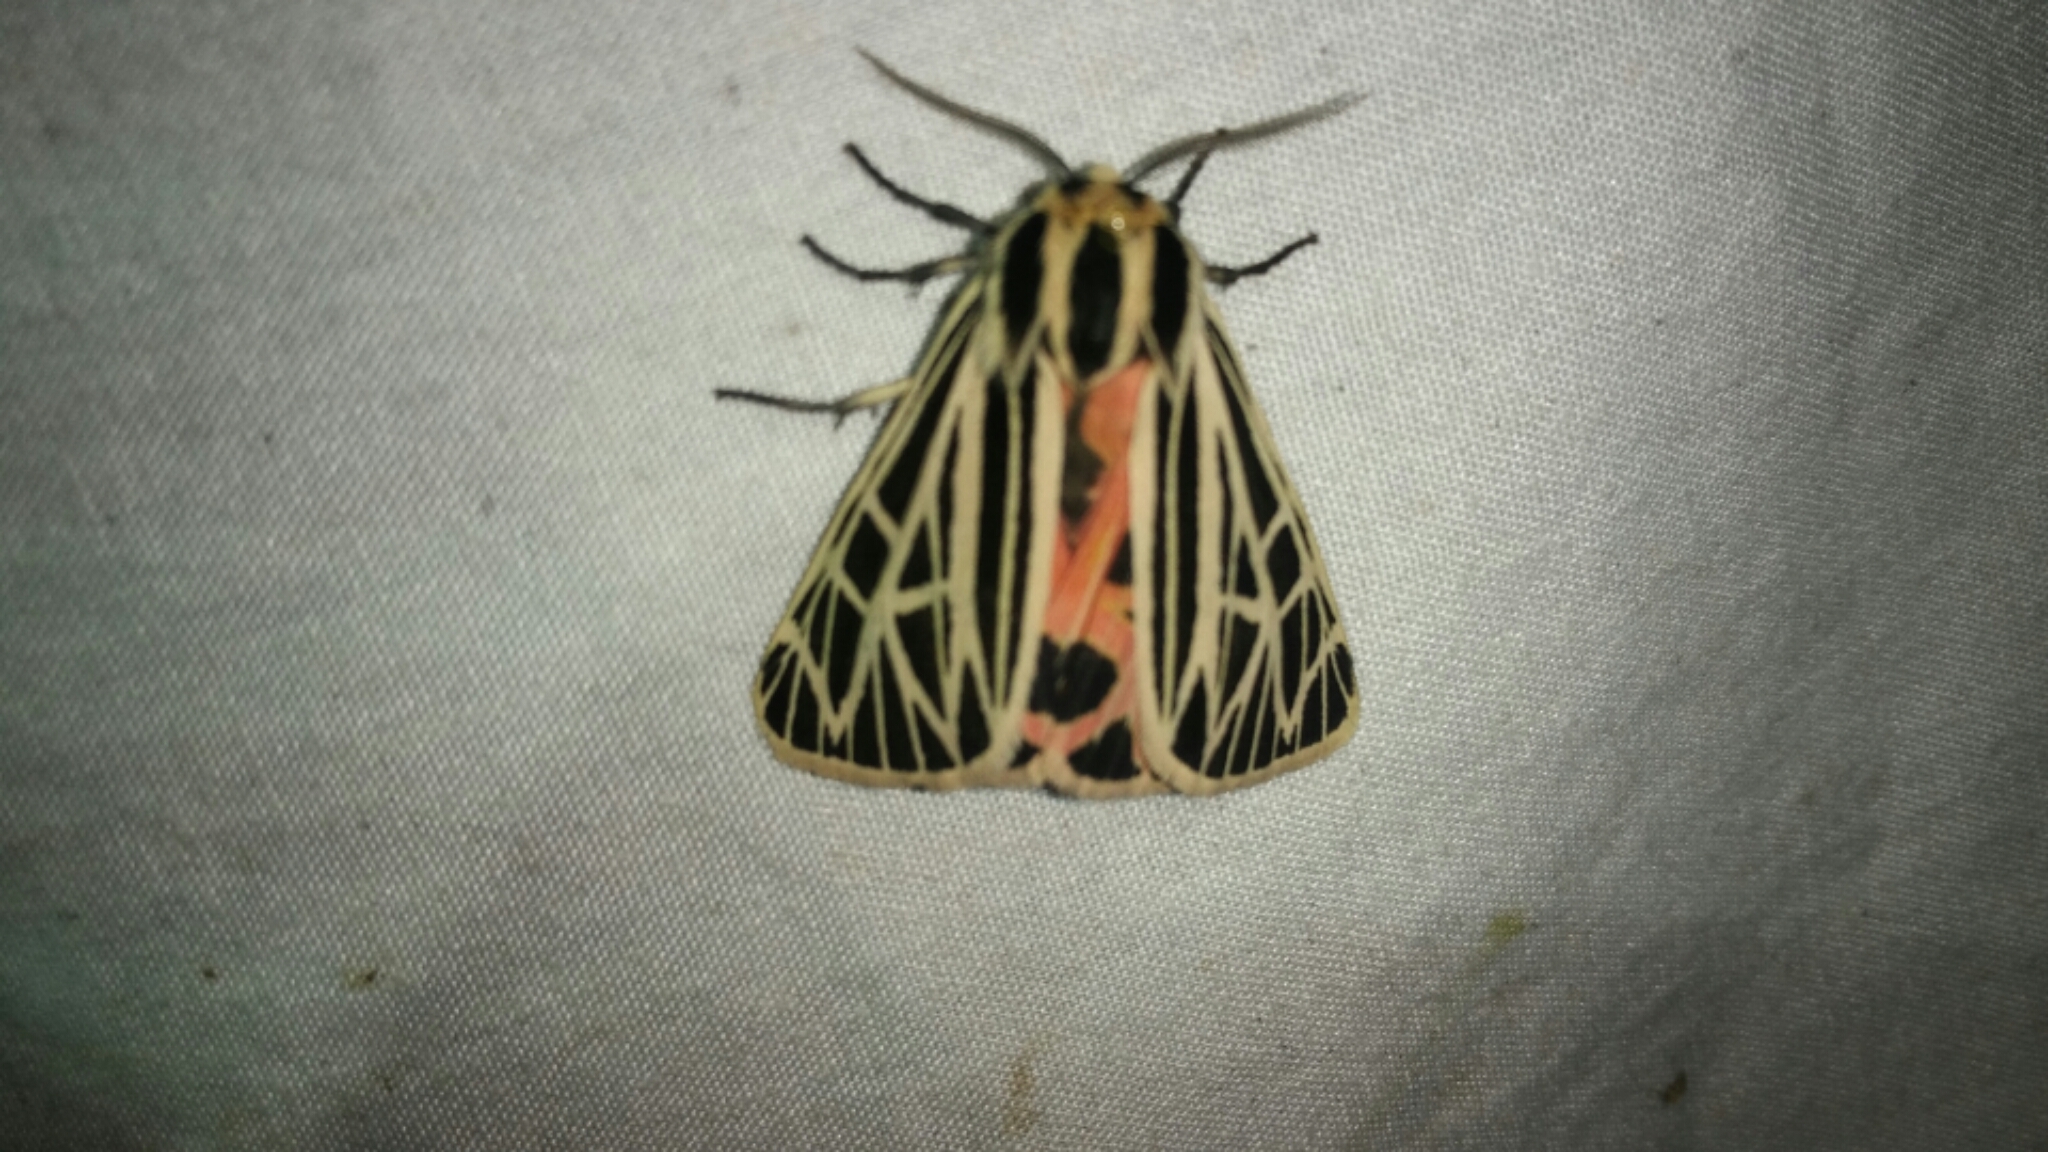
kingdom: Animalia
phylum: Arthropoda
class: Insecta
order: Lepidoptera
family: Erebidae
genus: Grammia
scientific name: Grammia virgo
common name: Virgin tiger moth
